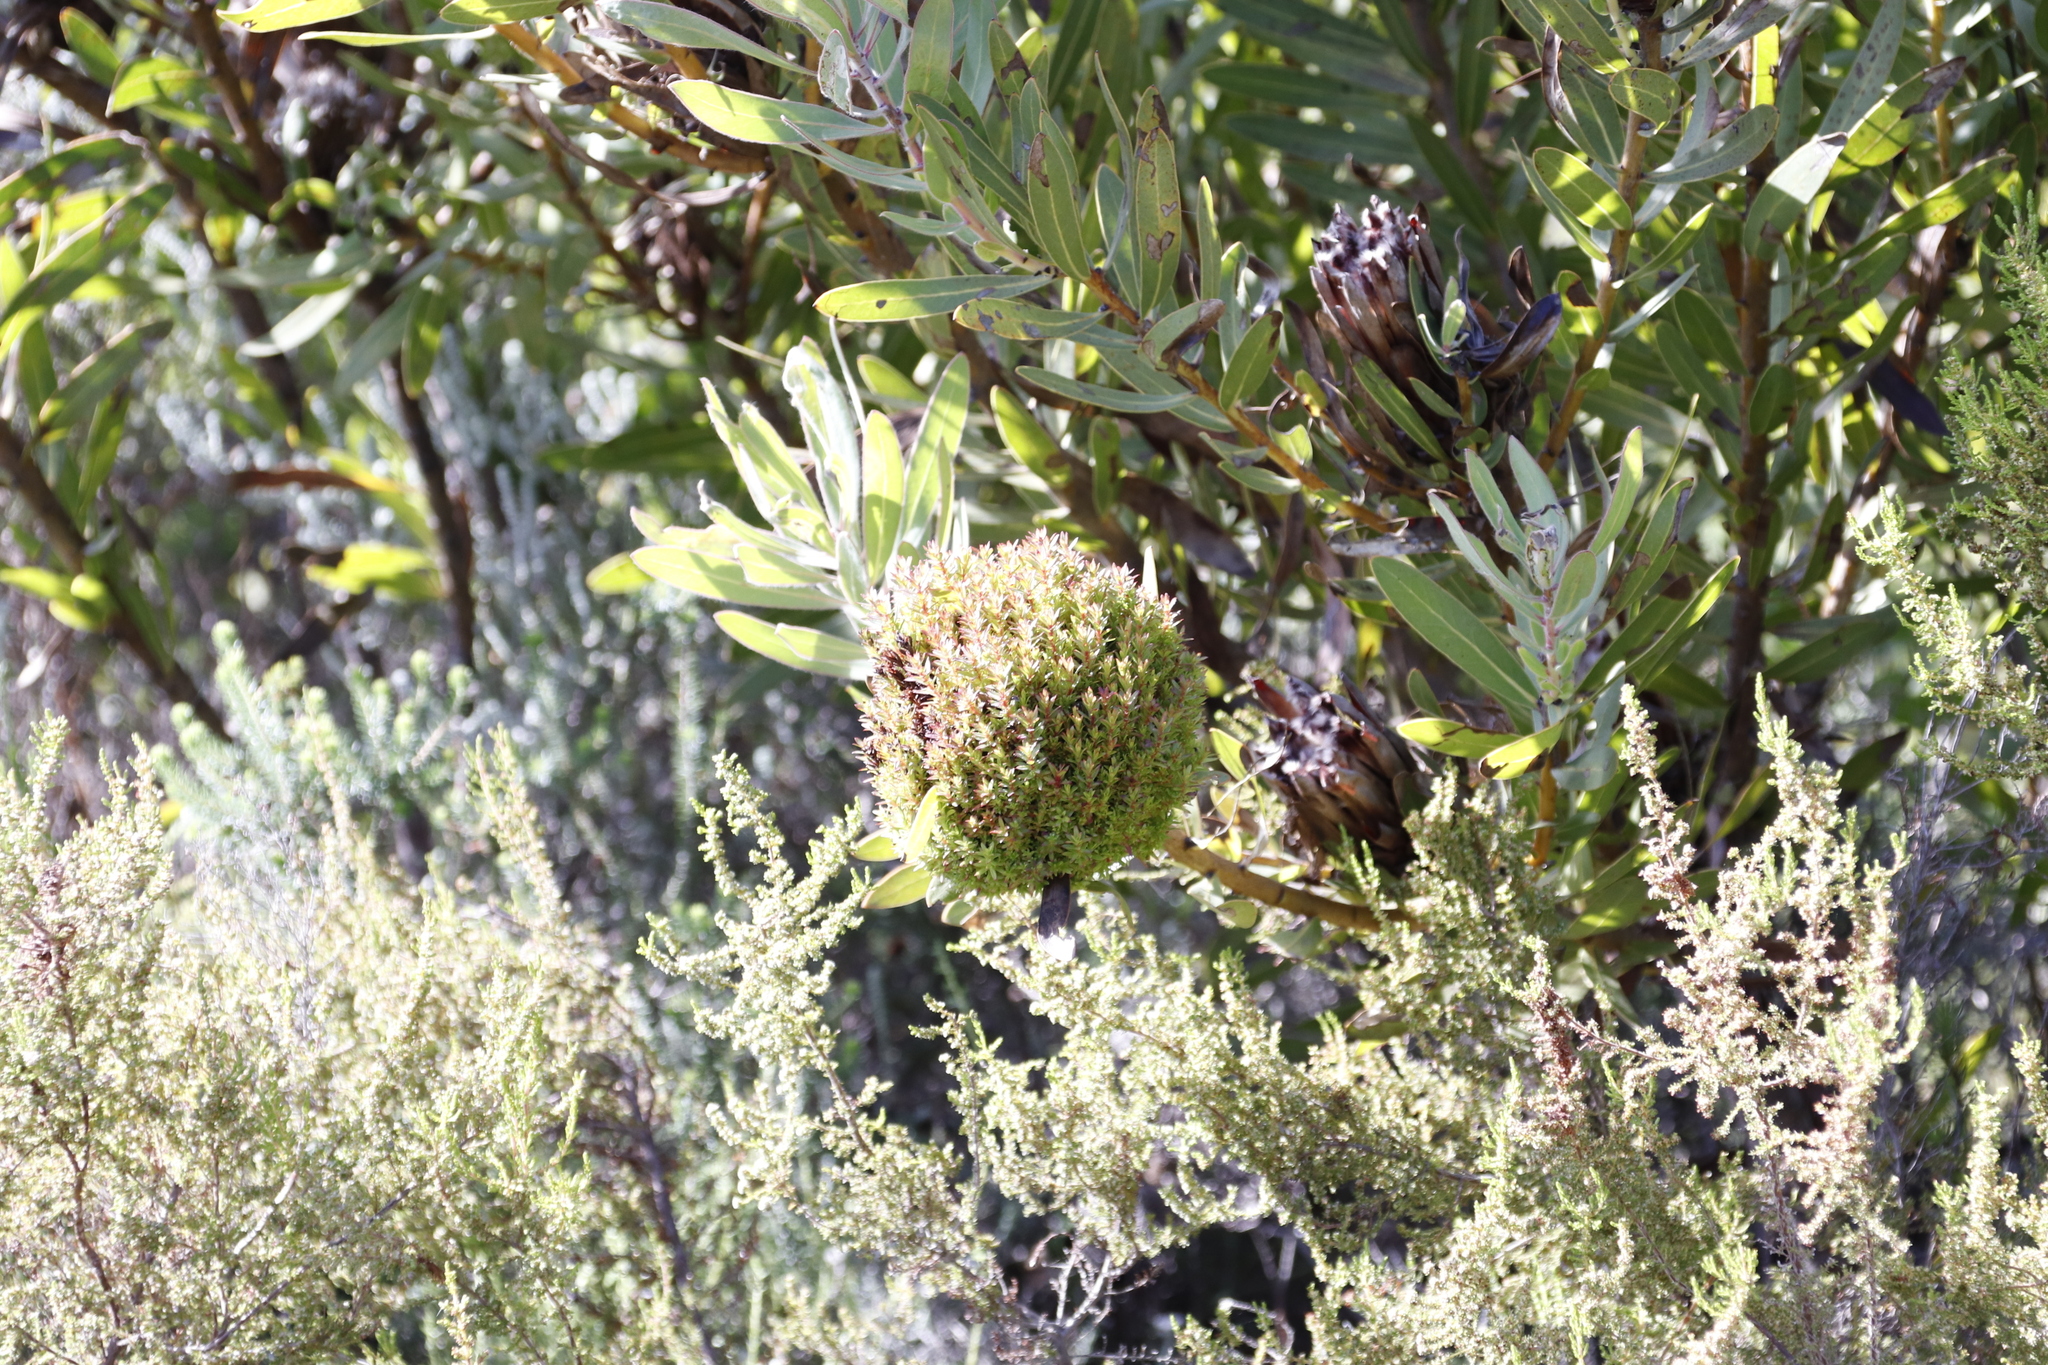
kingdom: Bacteria
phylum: Firmicutes
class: Bacilli
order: Acholeplasmatales
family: Acholeplasmataceae
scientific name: Acholeplasmataceae
